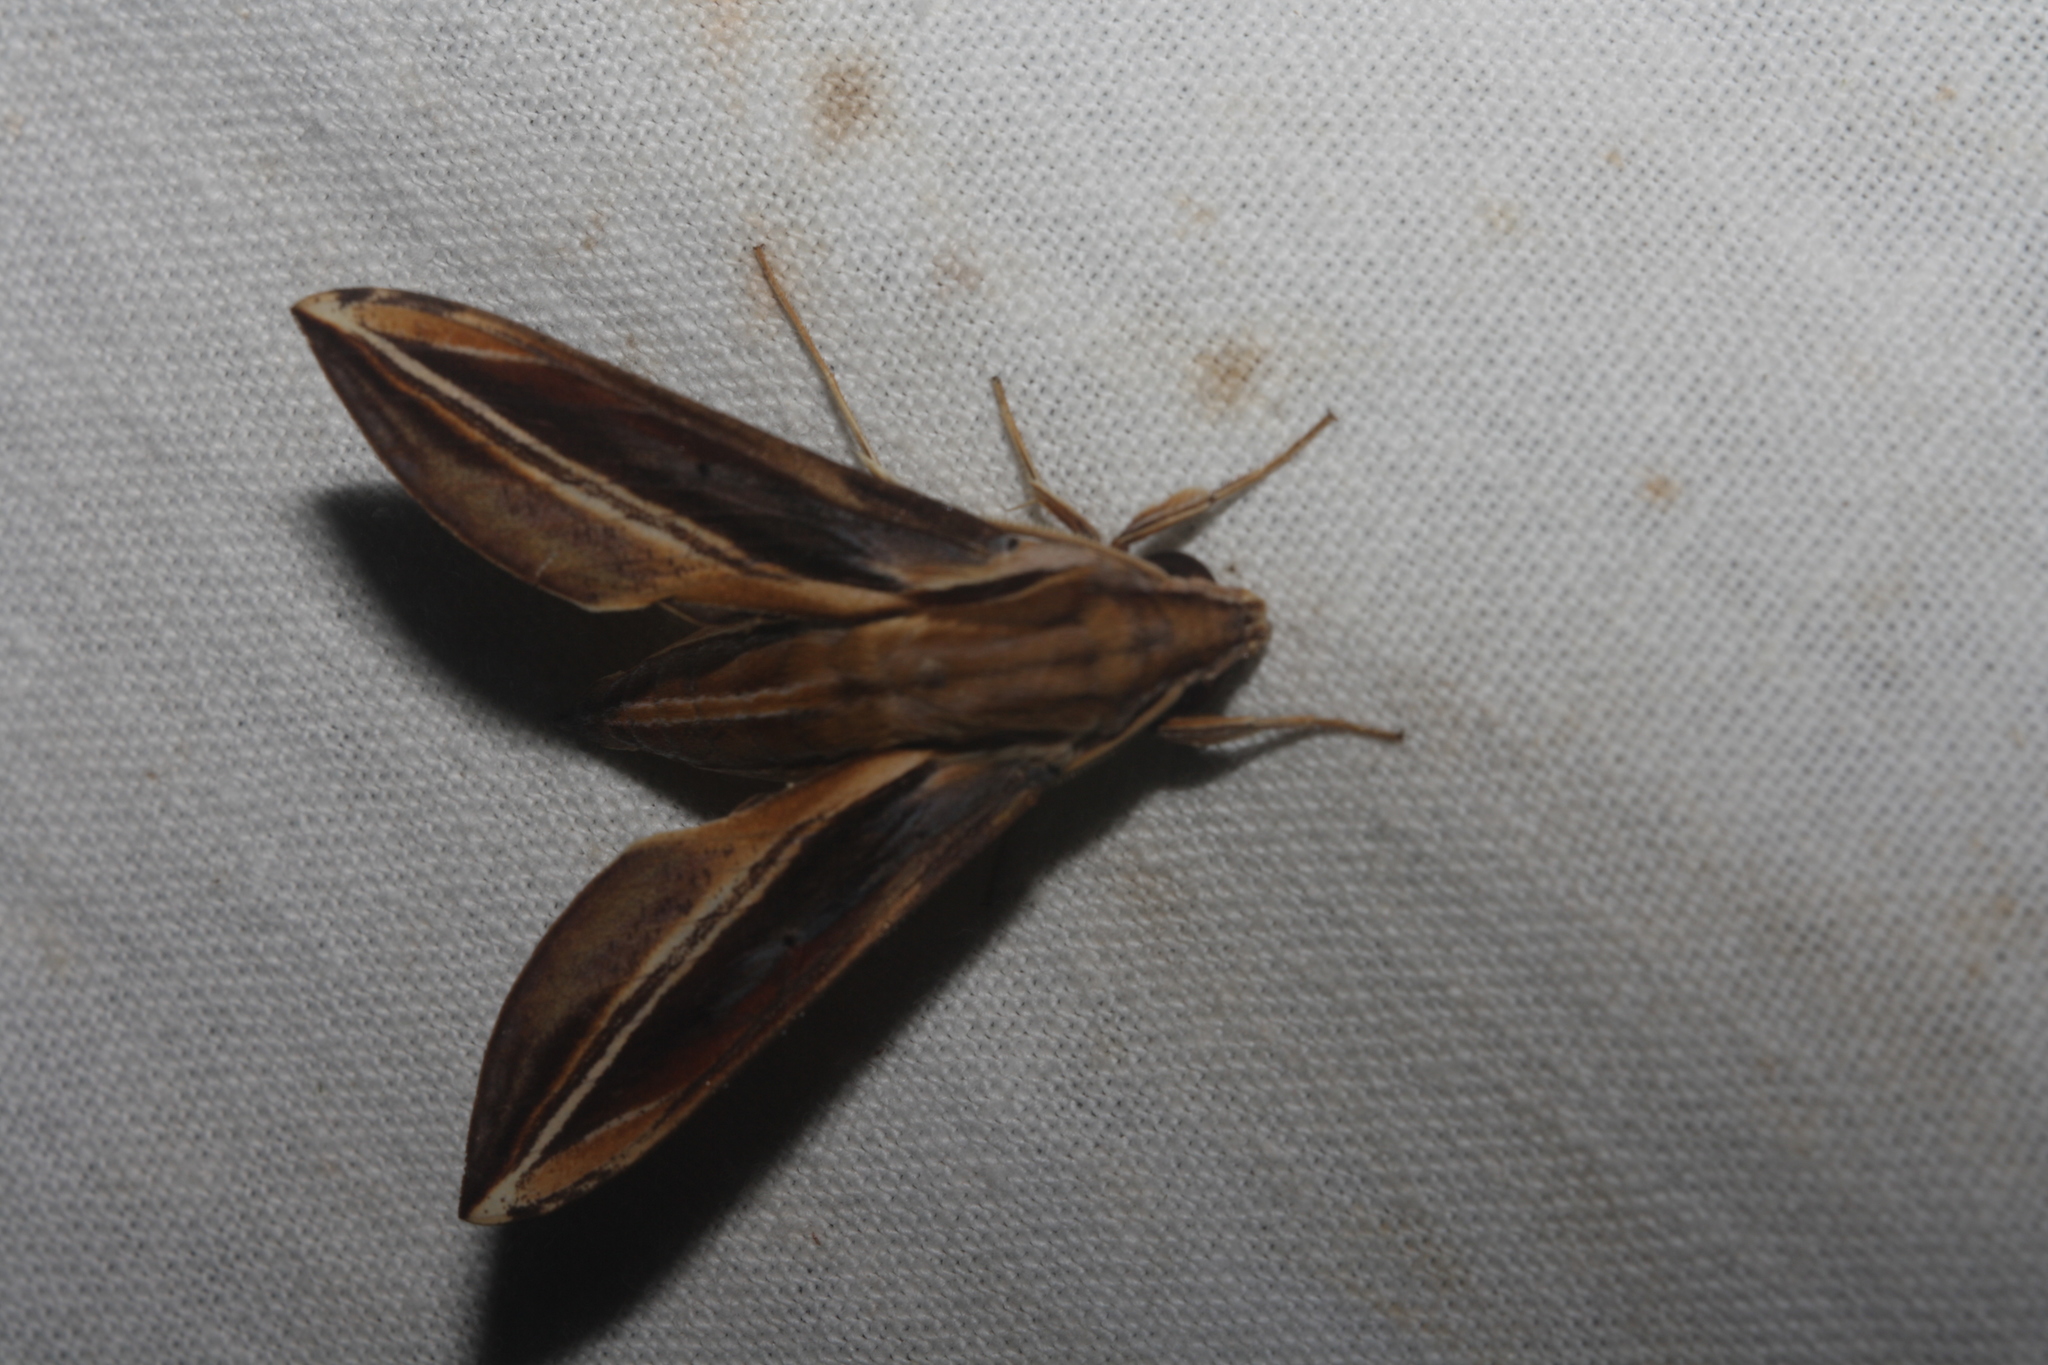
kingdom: Animalia
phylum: Arthropoda
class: Insecta
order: Lepidoptera
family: Sphingidae
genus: Xylophanes
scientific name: Xylophanes thyelia
